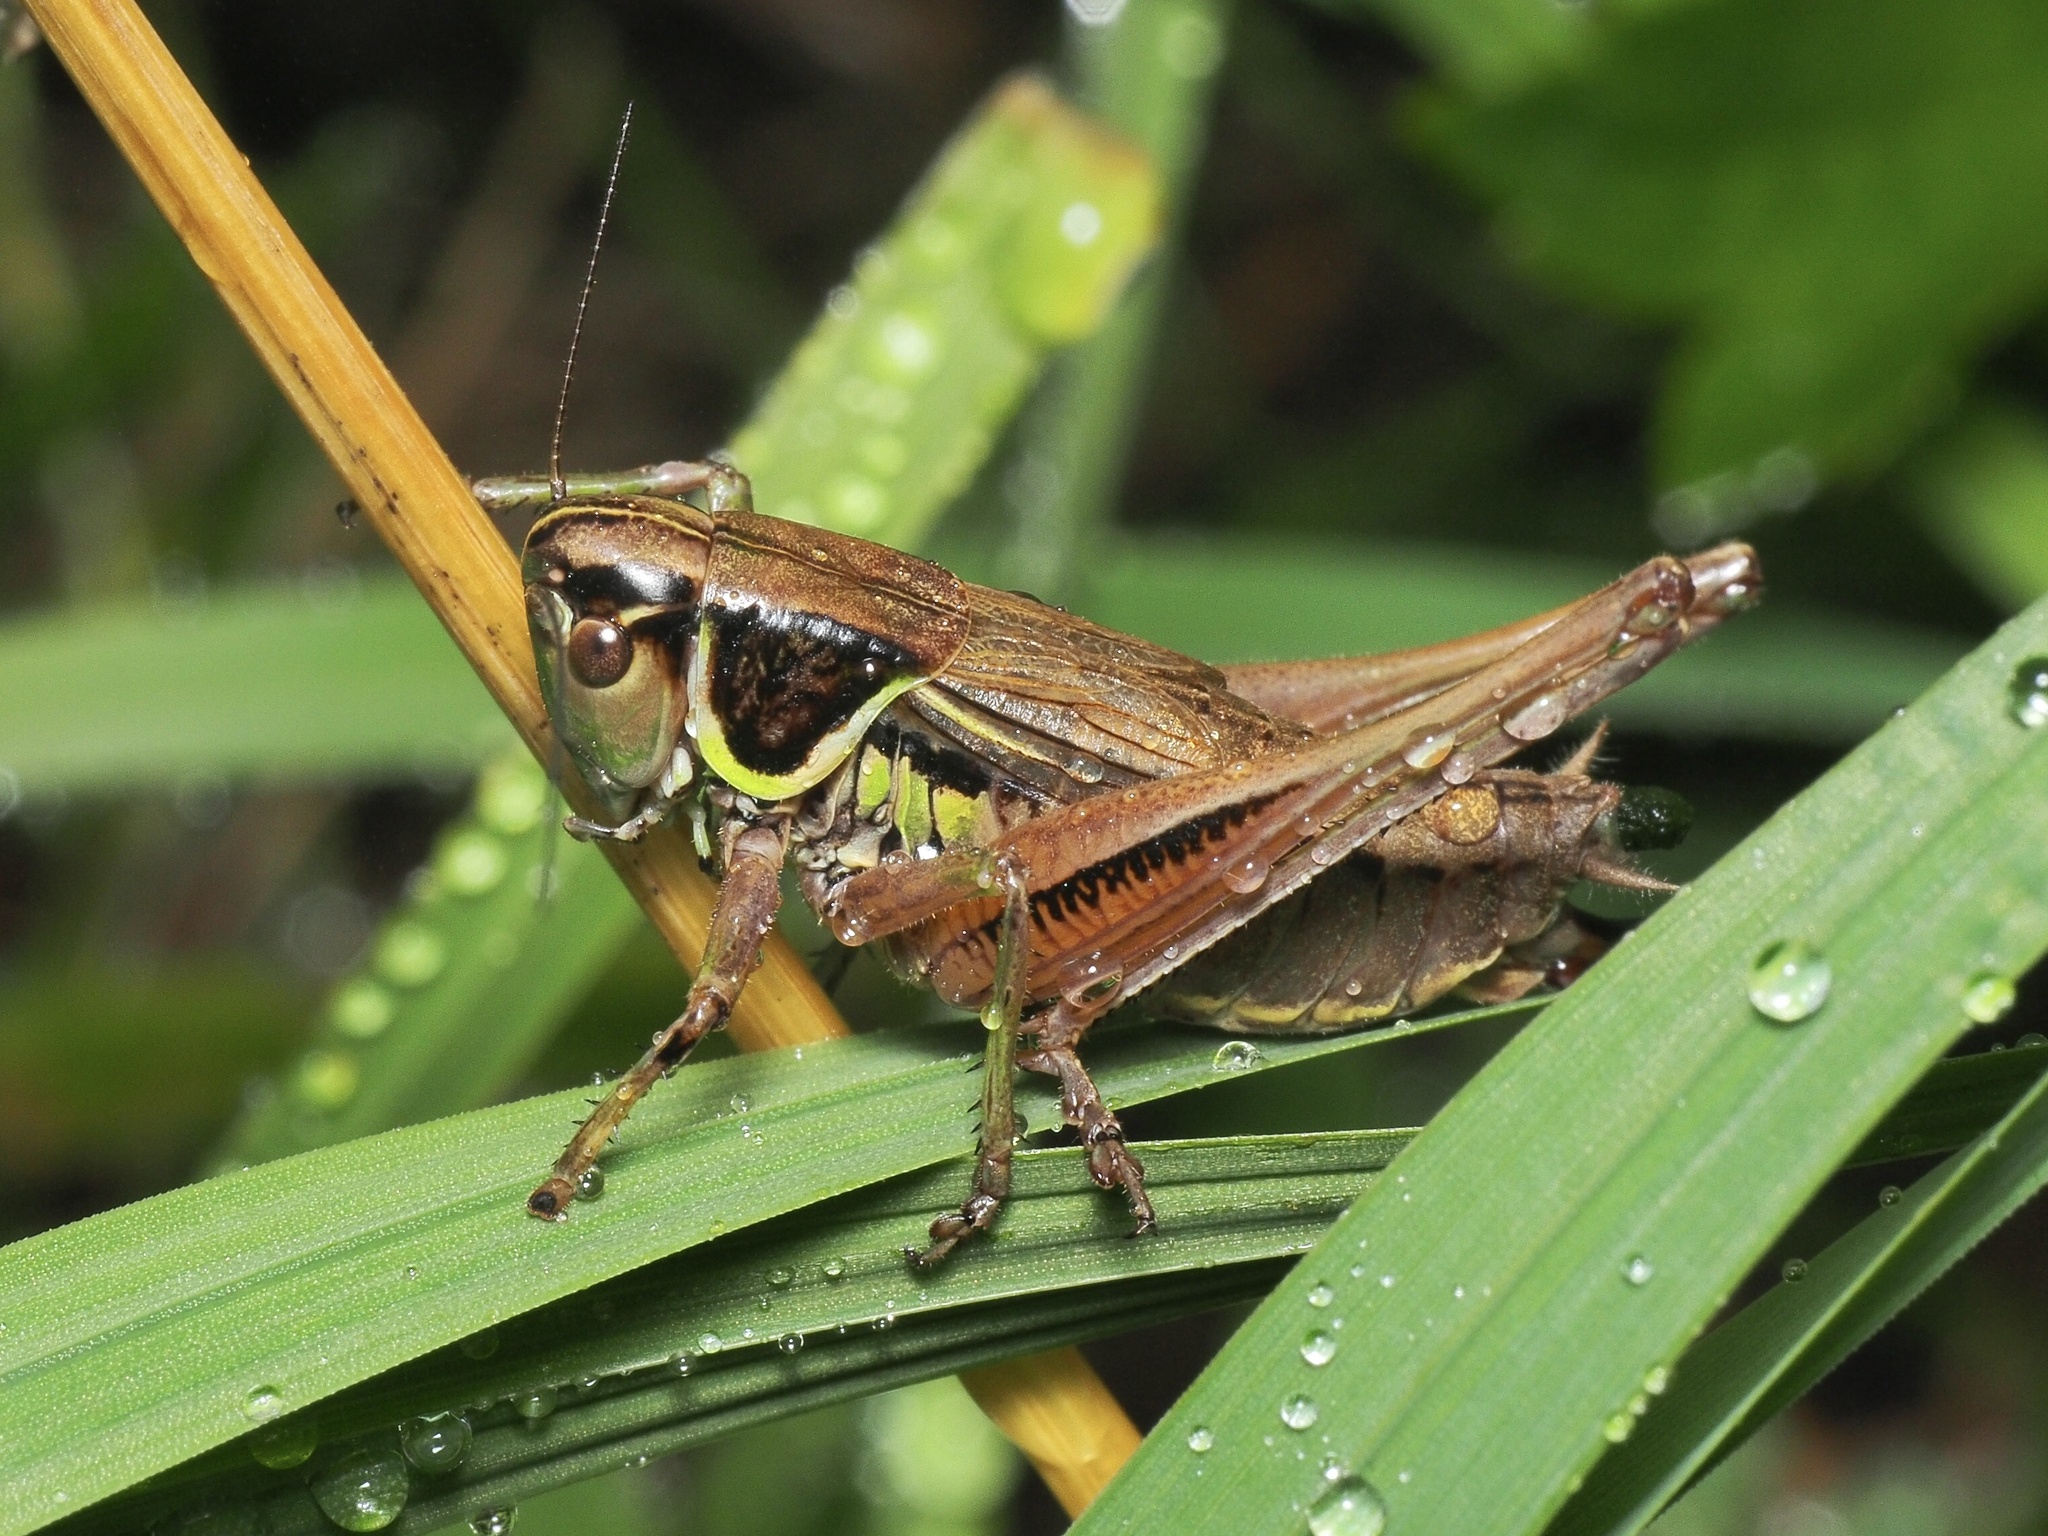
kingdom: Animalia
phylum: Arthropoda
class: Insecta
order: Orthoptera
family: Tettigoniidae
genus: Roeseliana
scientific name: Roeseliana roeselii
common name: Roesel's bush cricket
